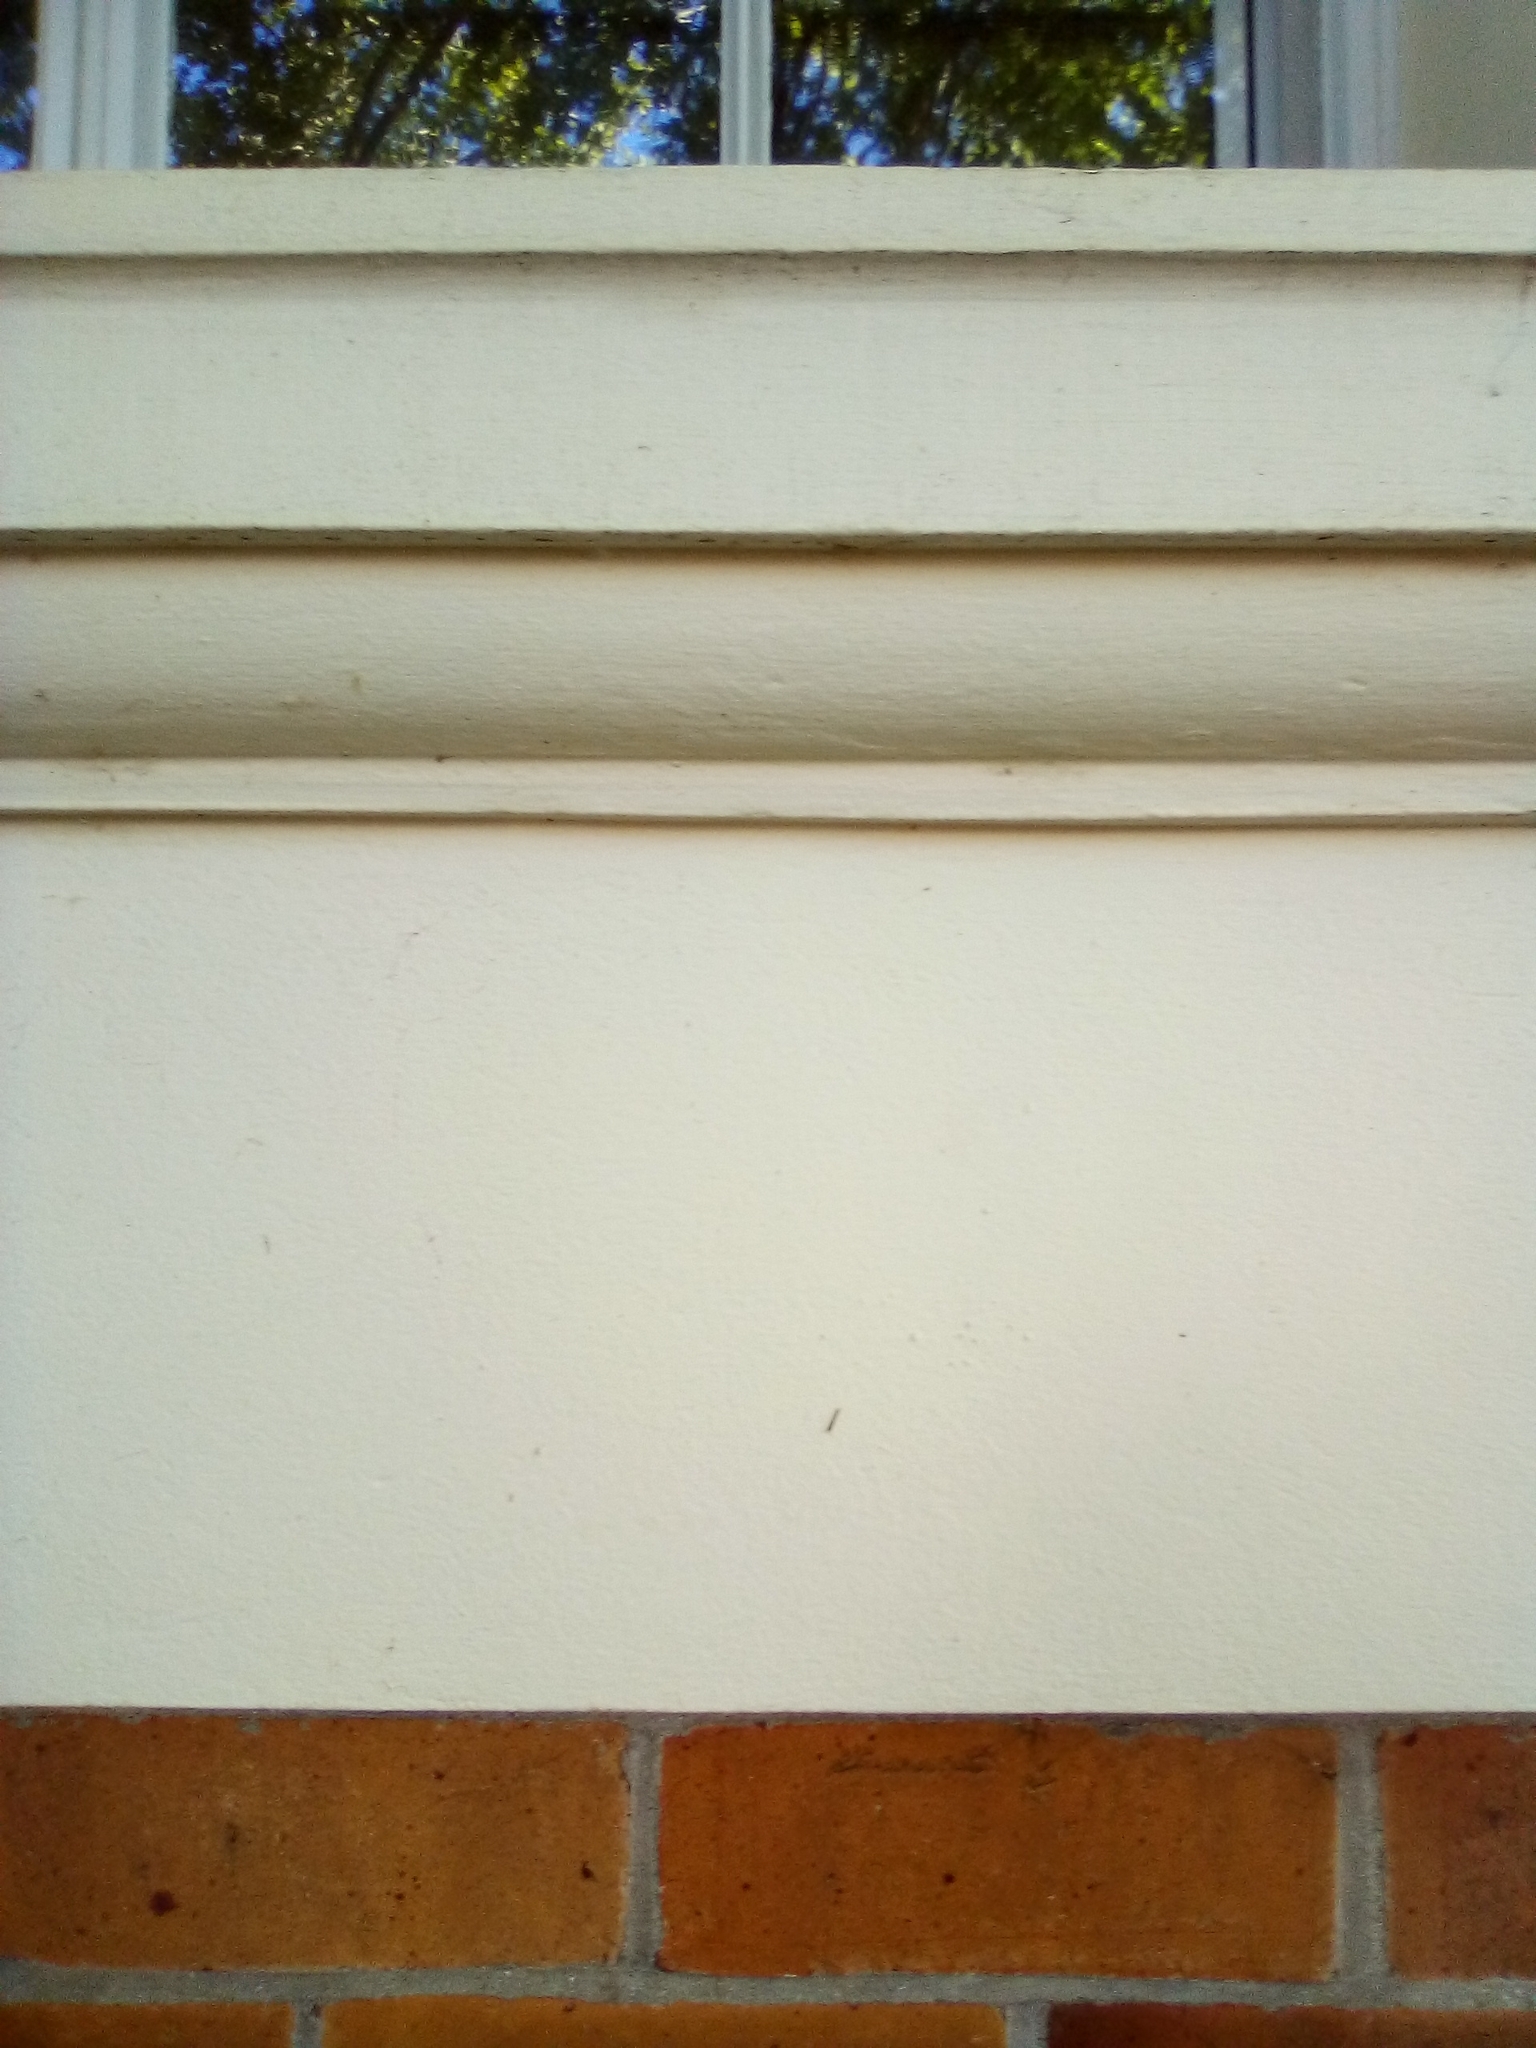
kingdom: Animalia
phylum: Arthropoda
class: Insecta
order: Lepidoptera
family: Roeslerstammiidae
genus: Vanicela
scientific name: Vanicela disjunctella
